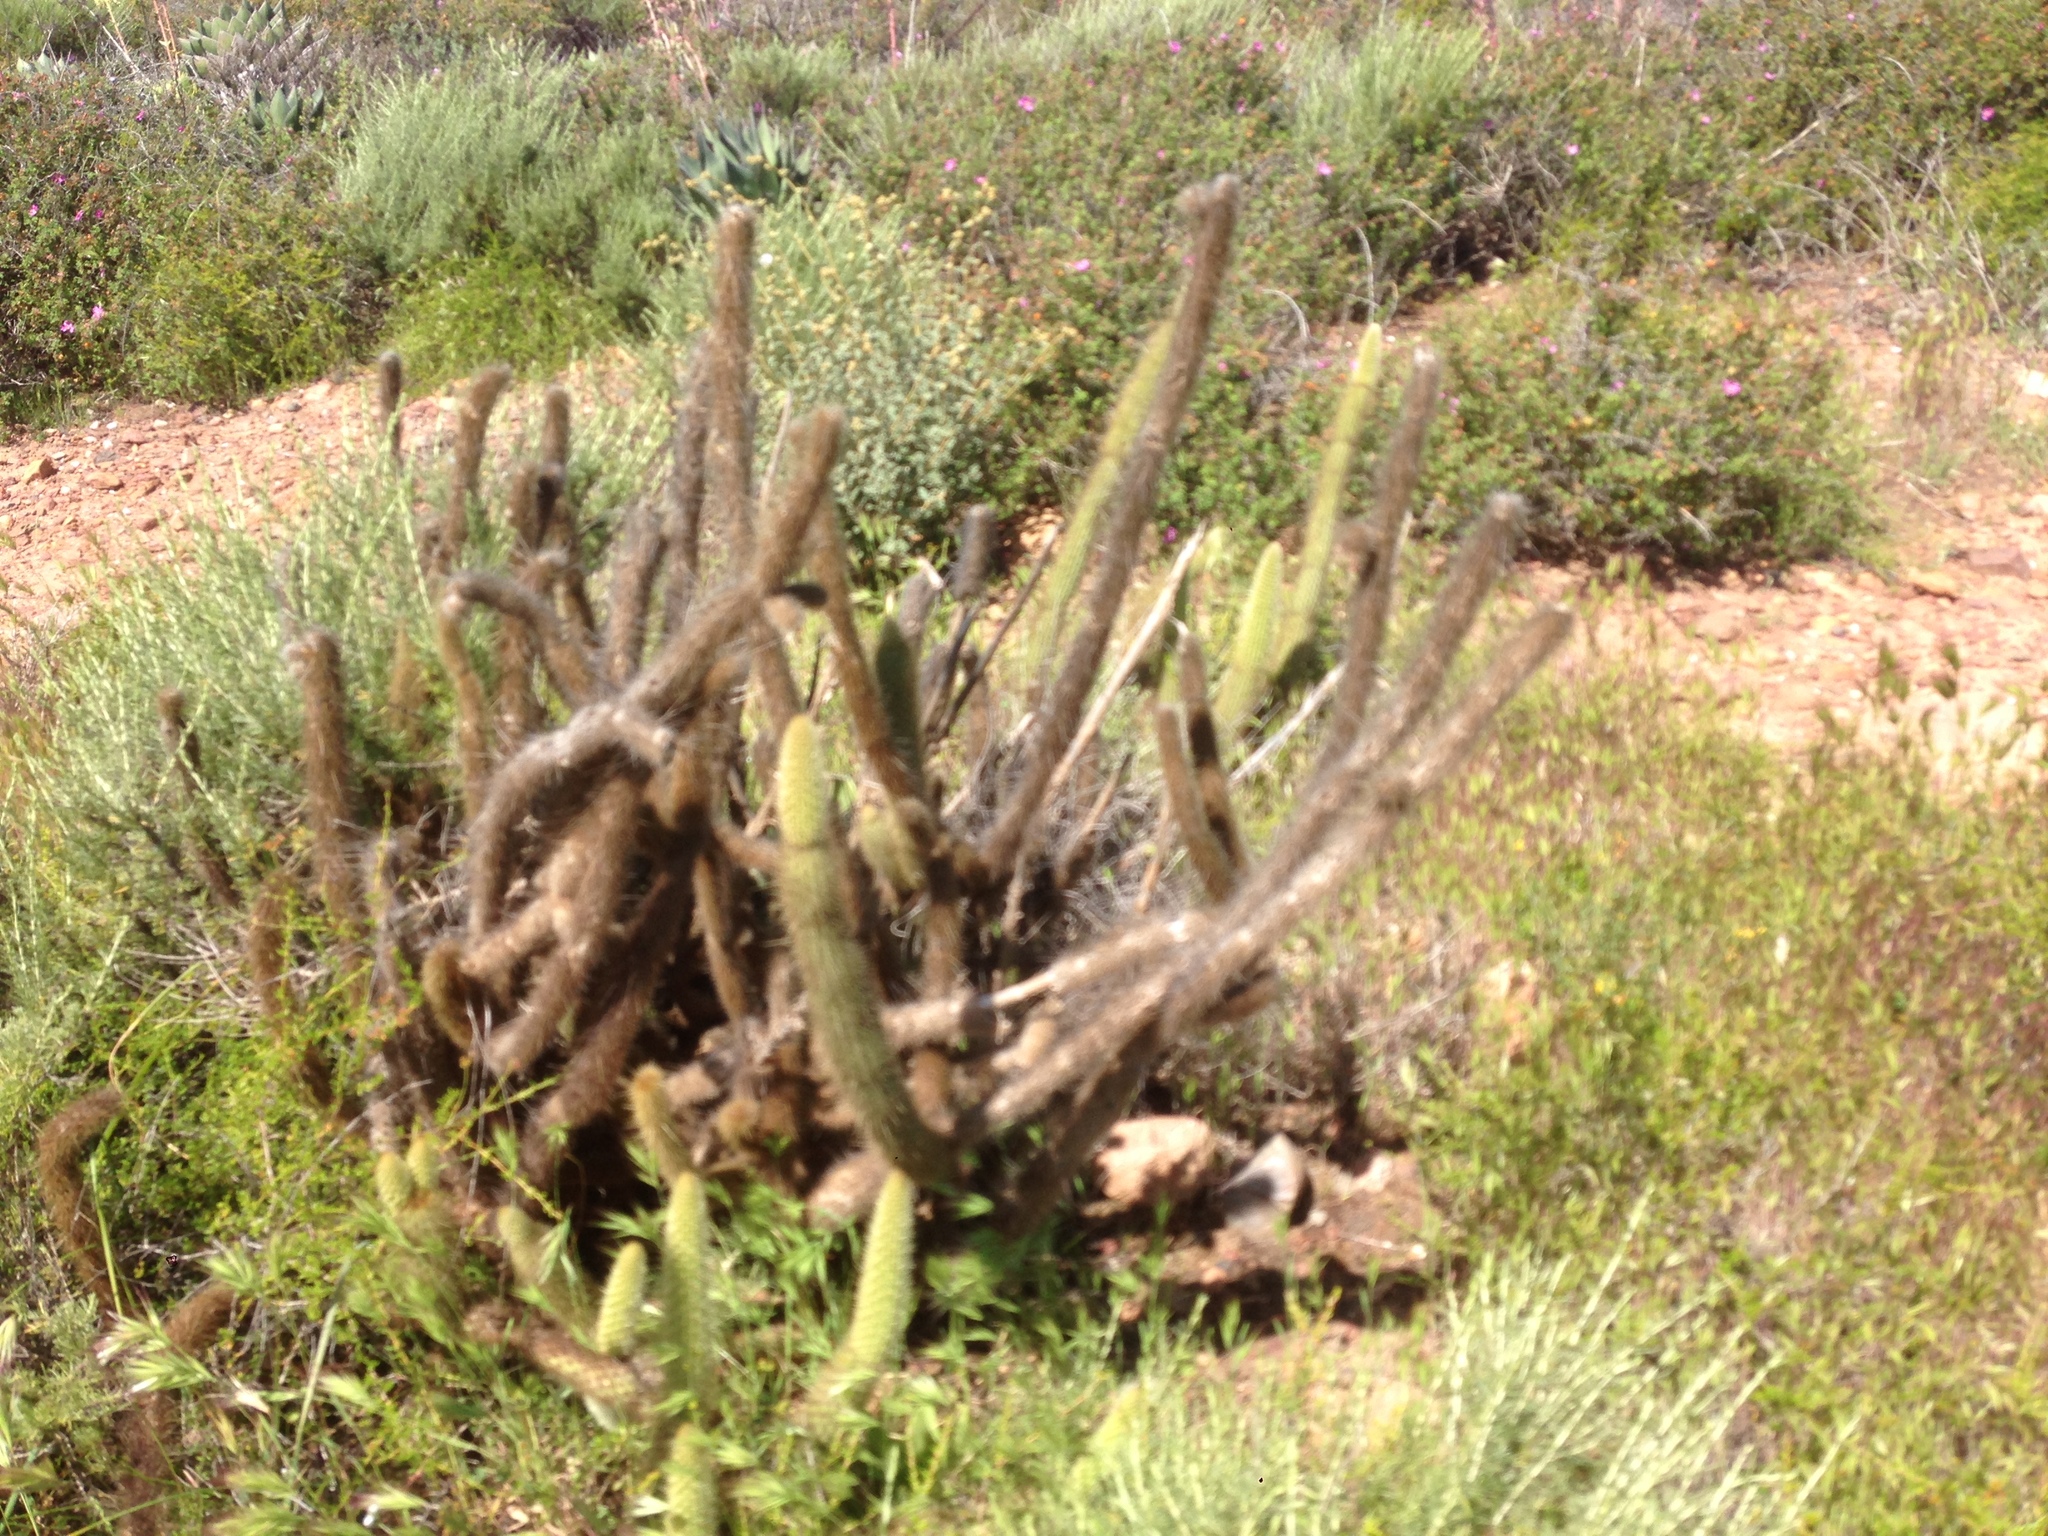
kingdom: Plantae
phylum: Tracheophyta
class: Magnoliopsida
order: Caryophyllales
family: Cactaceae
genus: Bergerocactus
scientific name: Bergerocactus emoryi
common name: Golden snakecactus
